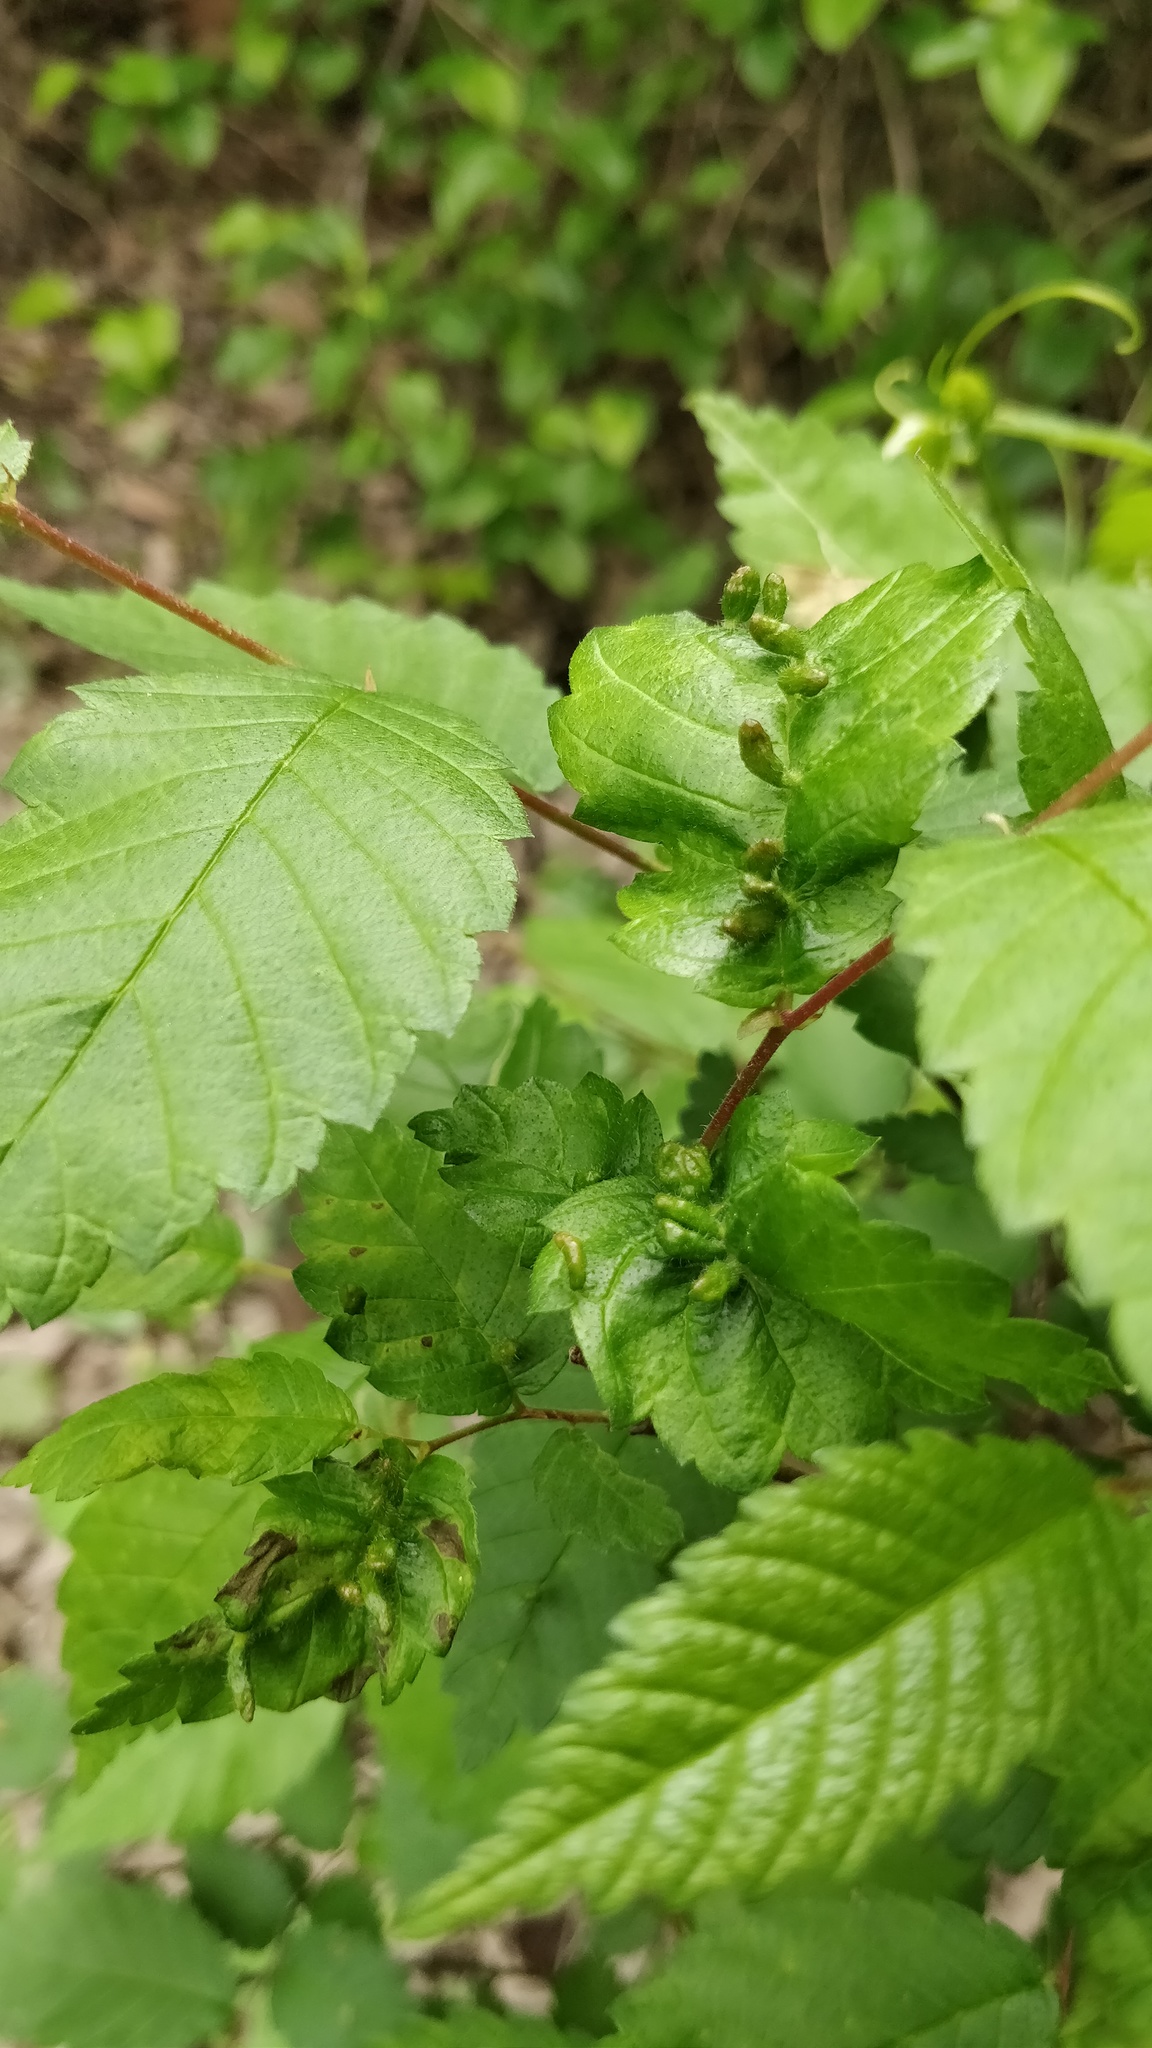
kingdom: Animalia
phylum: Arthropoda
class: Arachnida
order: Trombidiformes
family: Eriophyidae
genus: Aceria
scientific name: Aceria
